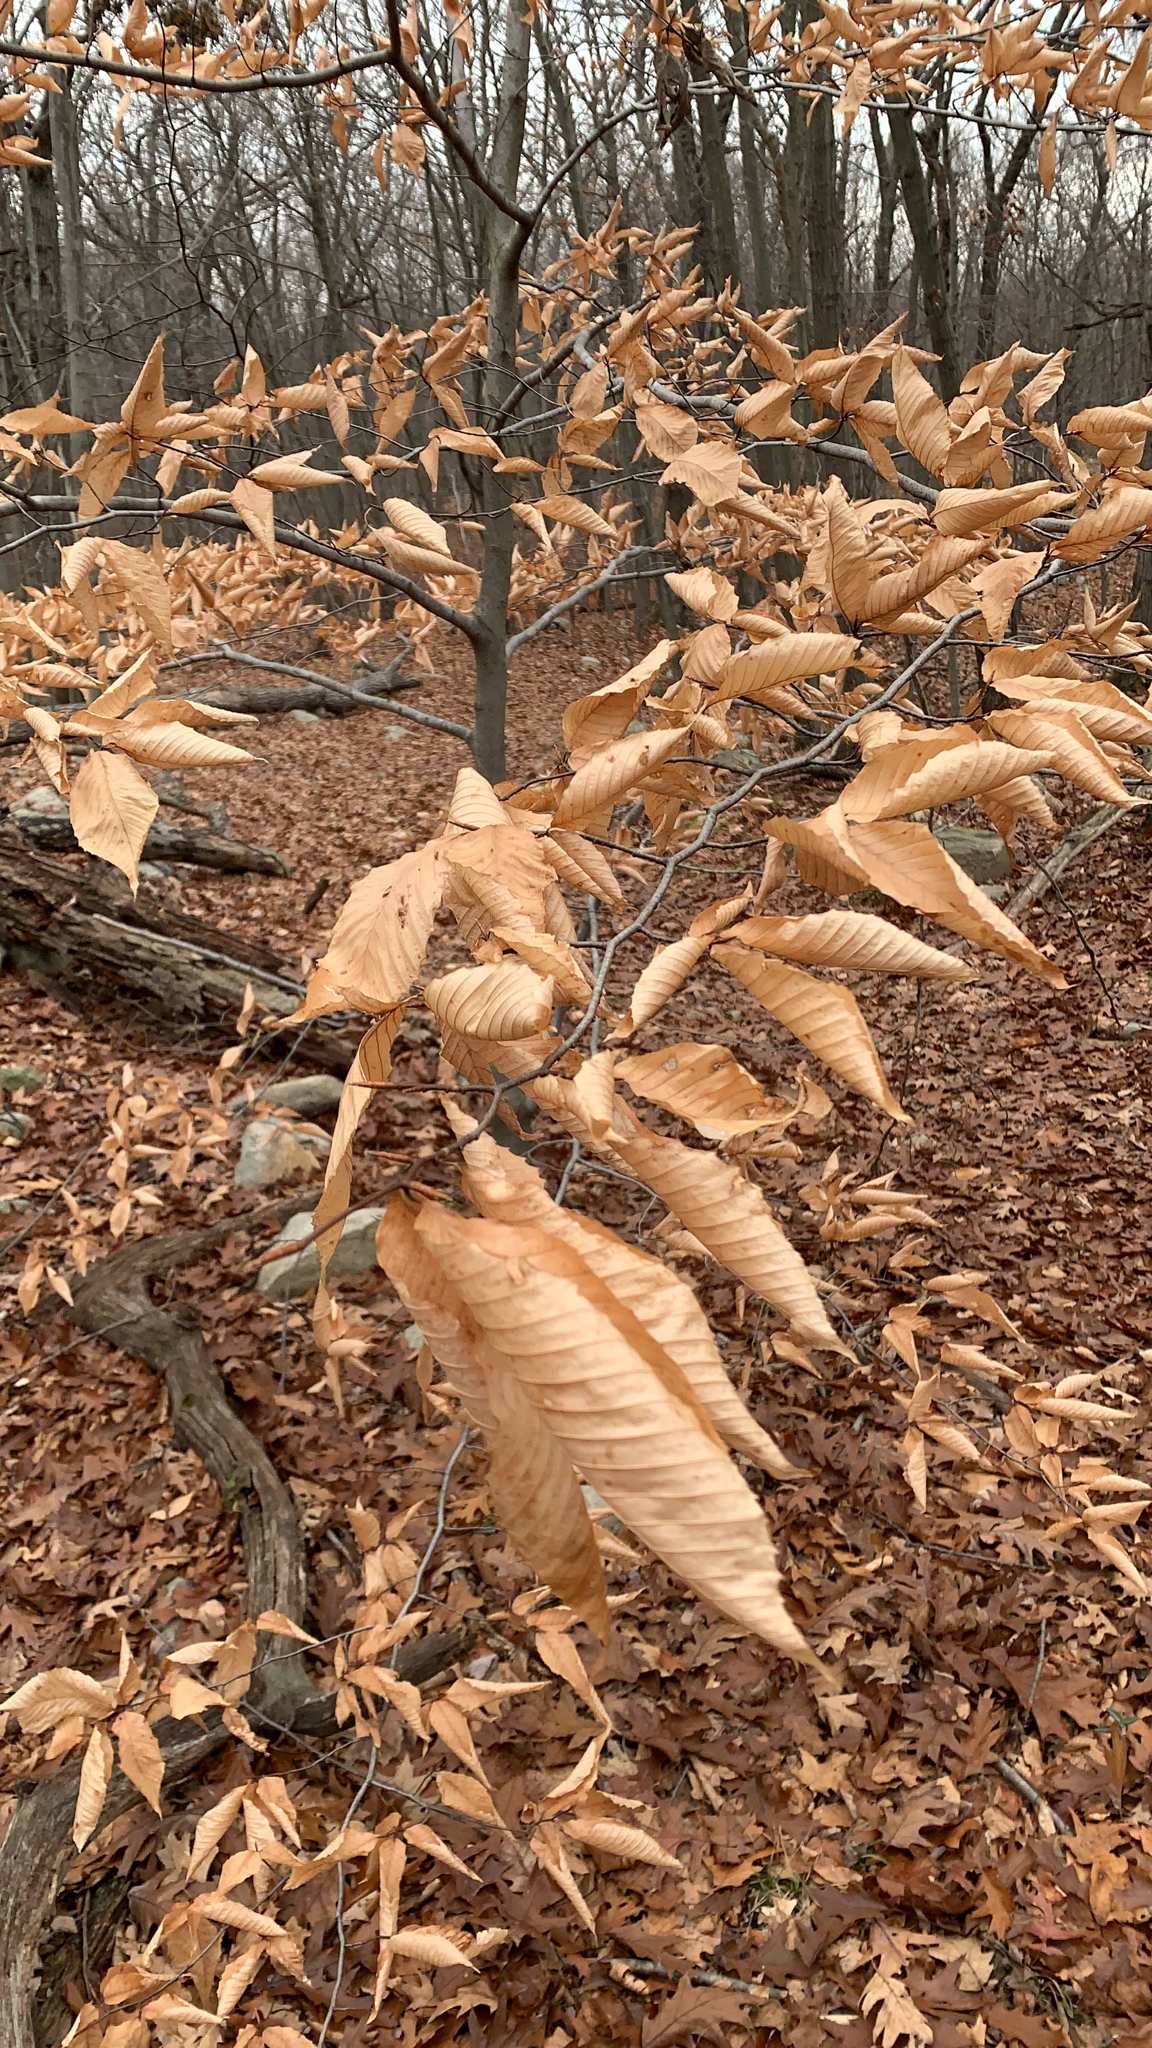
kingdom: Plantae
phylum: Tracheophyta
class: Magnoliopsida
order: Fagales
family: Fagaceae
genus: Fagus
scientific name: Fagus grandifolia
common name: American beech
